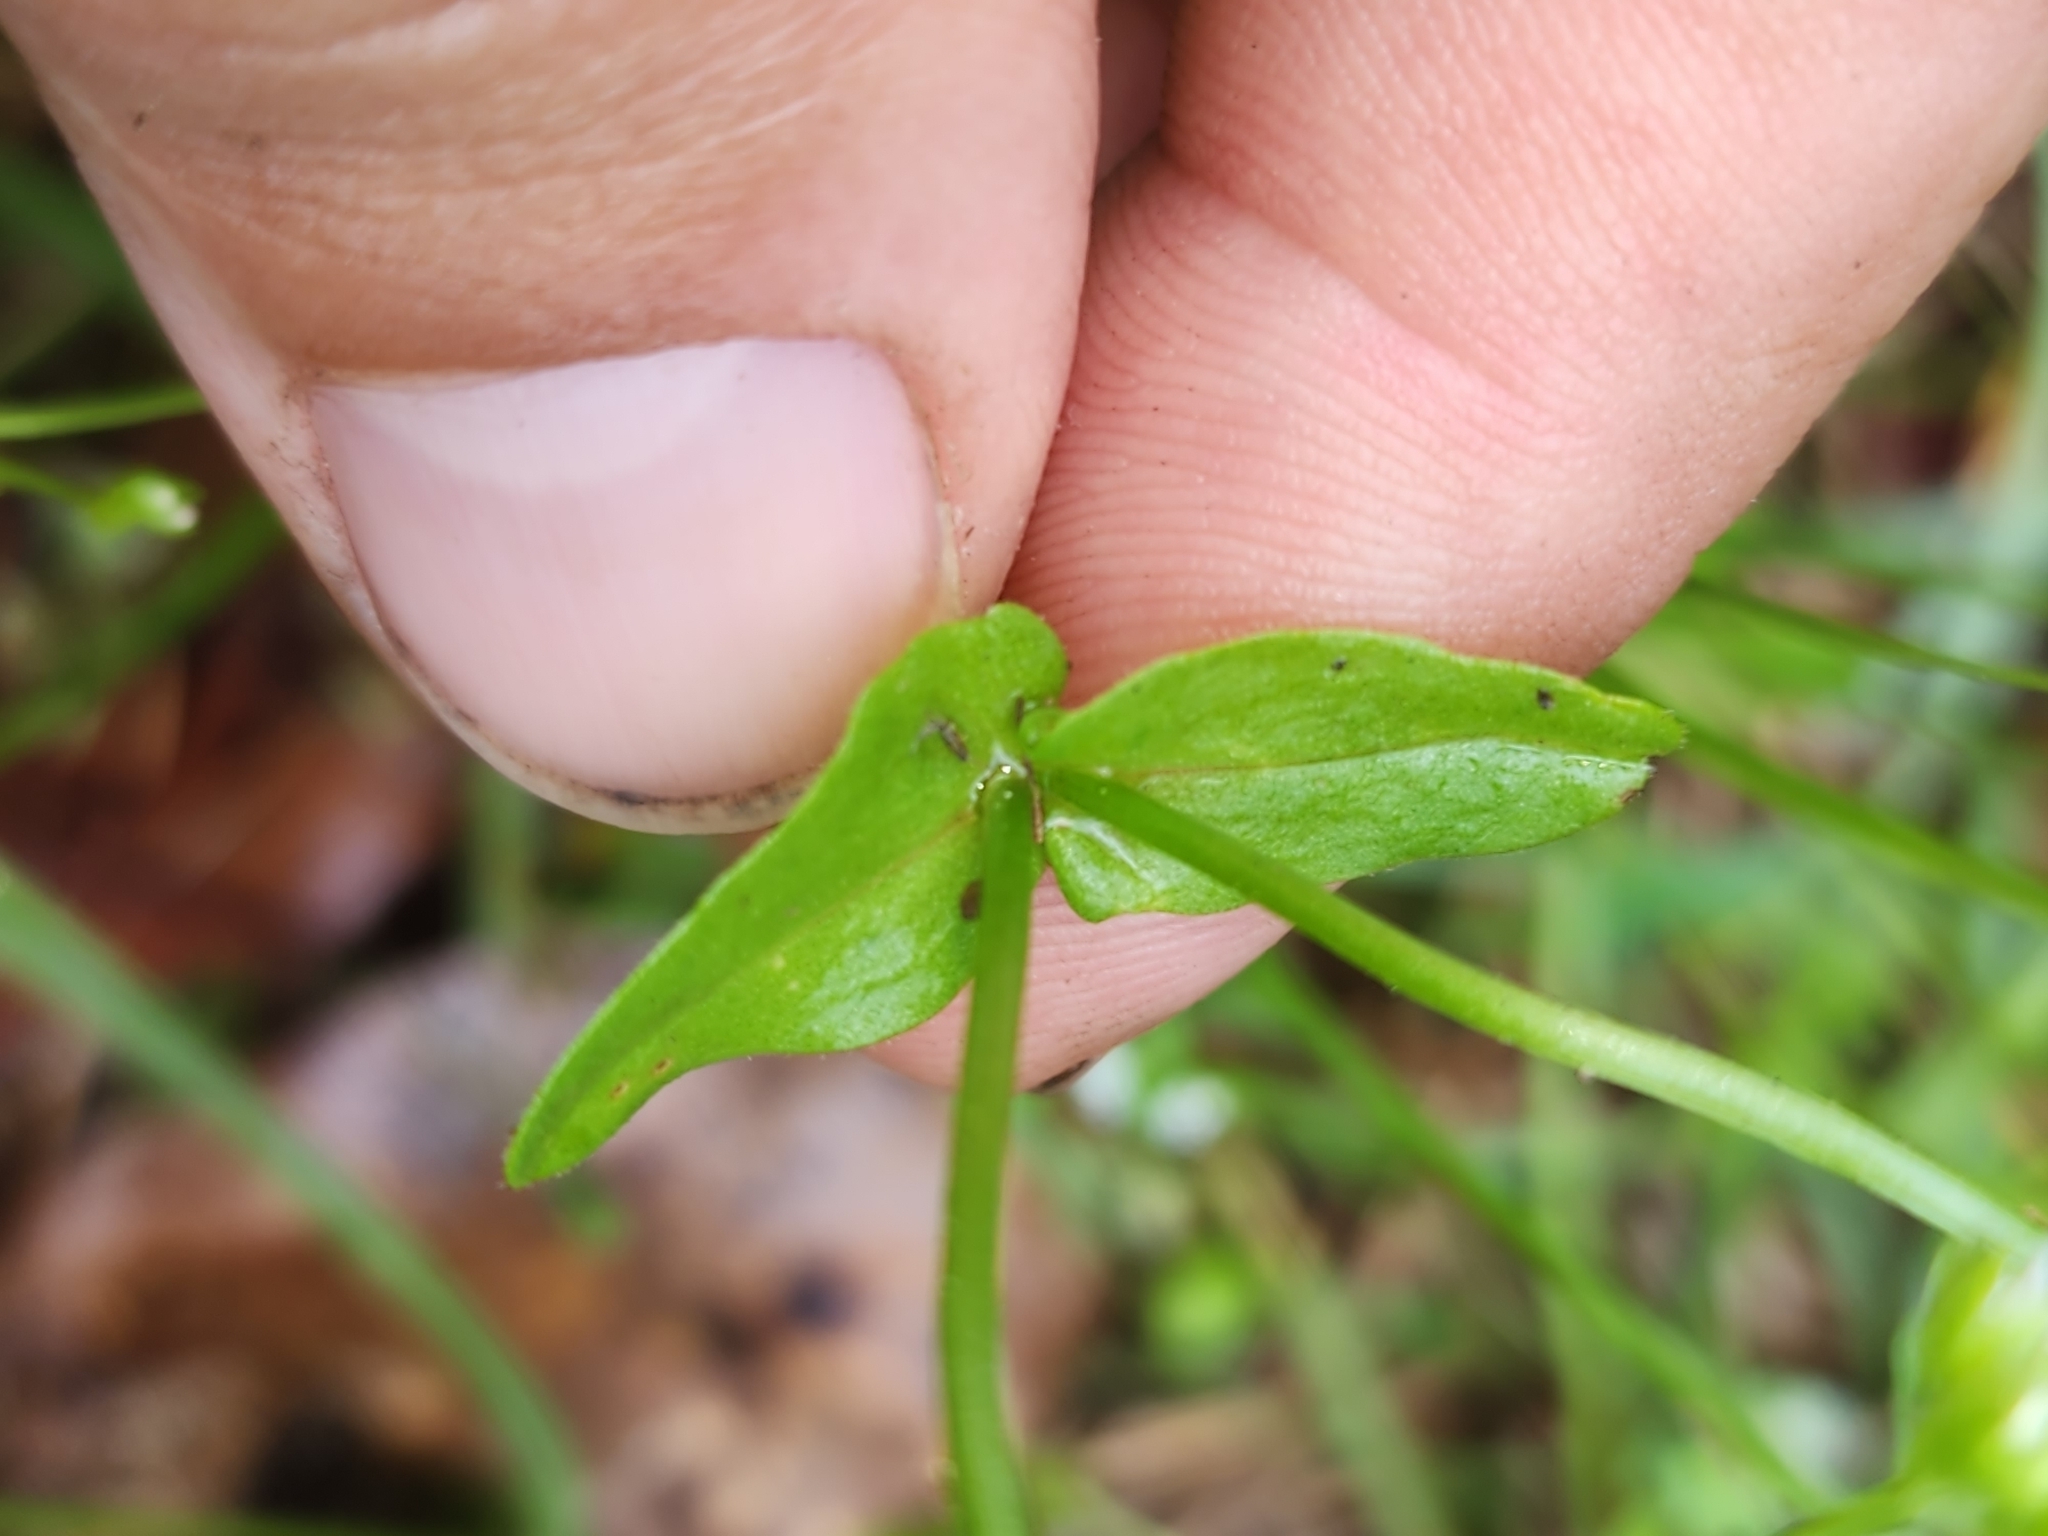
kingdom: Plantae
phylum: Tracheophyta
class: Magnoliopsida
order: Dipsacales
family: Caprifoliaceae
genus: Valerianella
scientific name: Valerianella radiata
